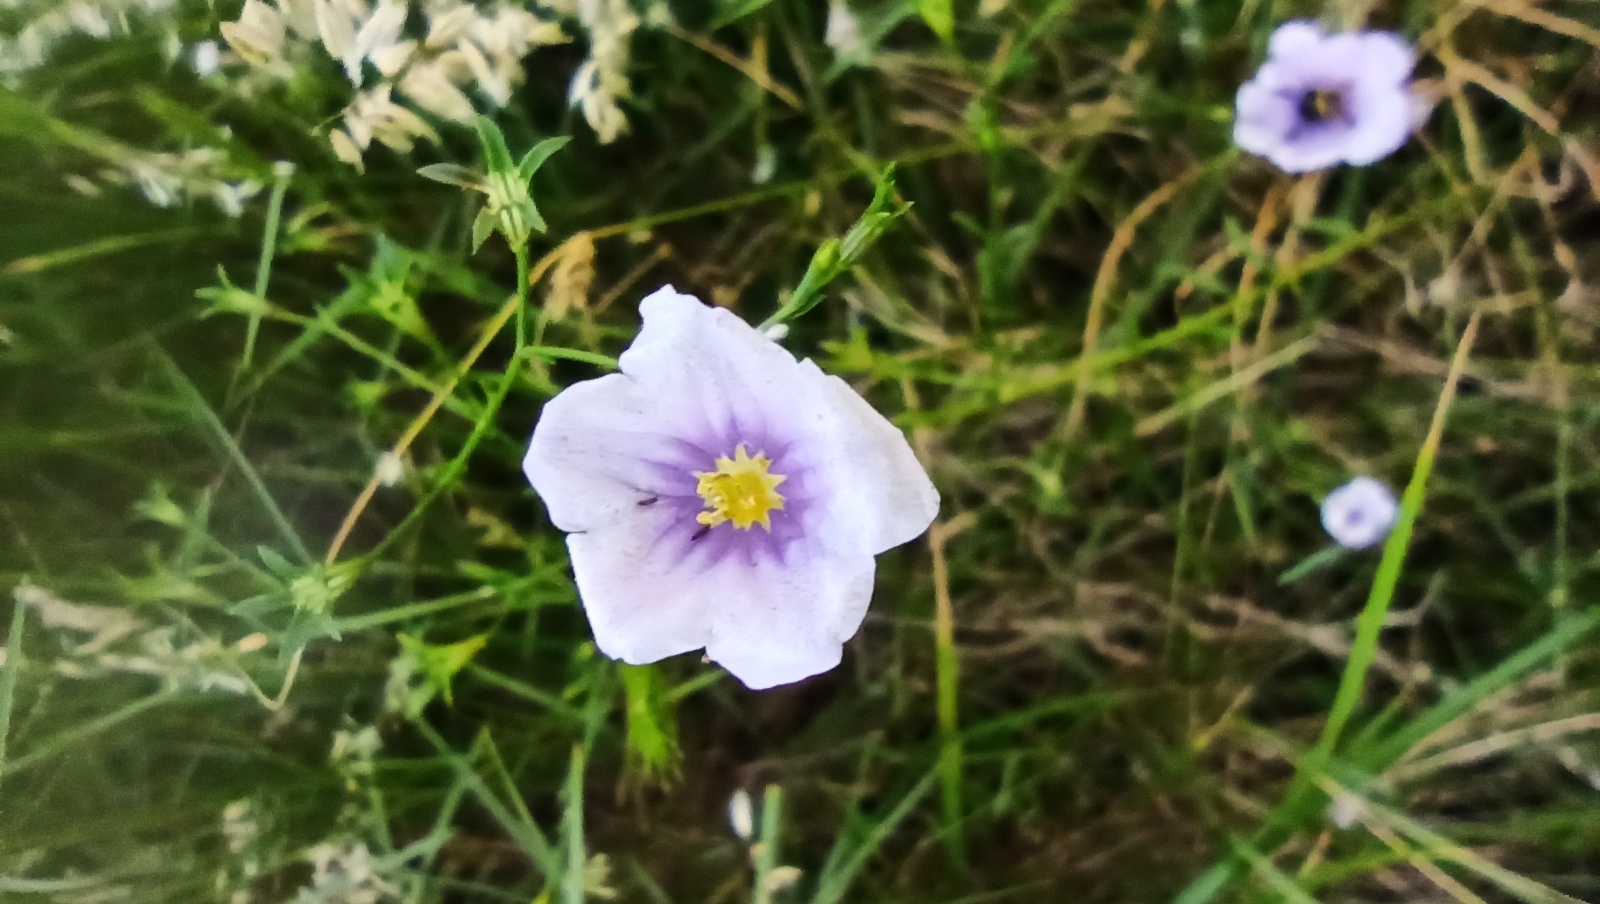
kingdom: Plantae
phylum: Tracheophyta
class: Magnoliopsida
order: Solanales
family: Solanaceae
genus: Nierembergia
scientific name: Nierembergia linariifolia
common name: Dwarf cupflower
